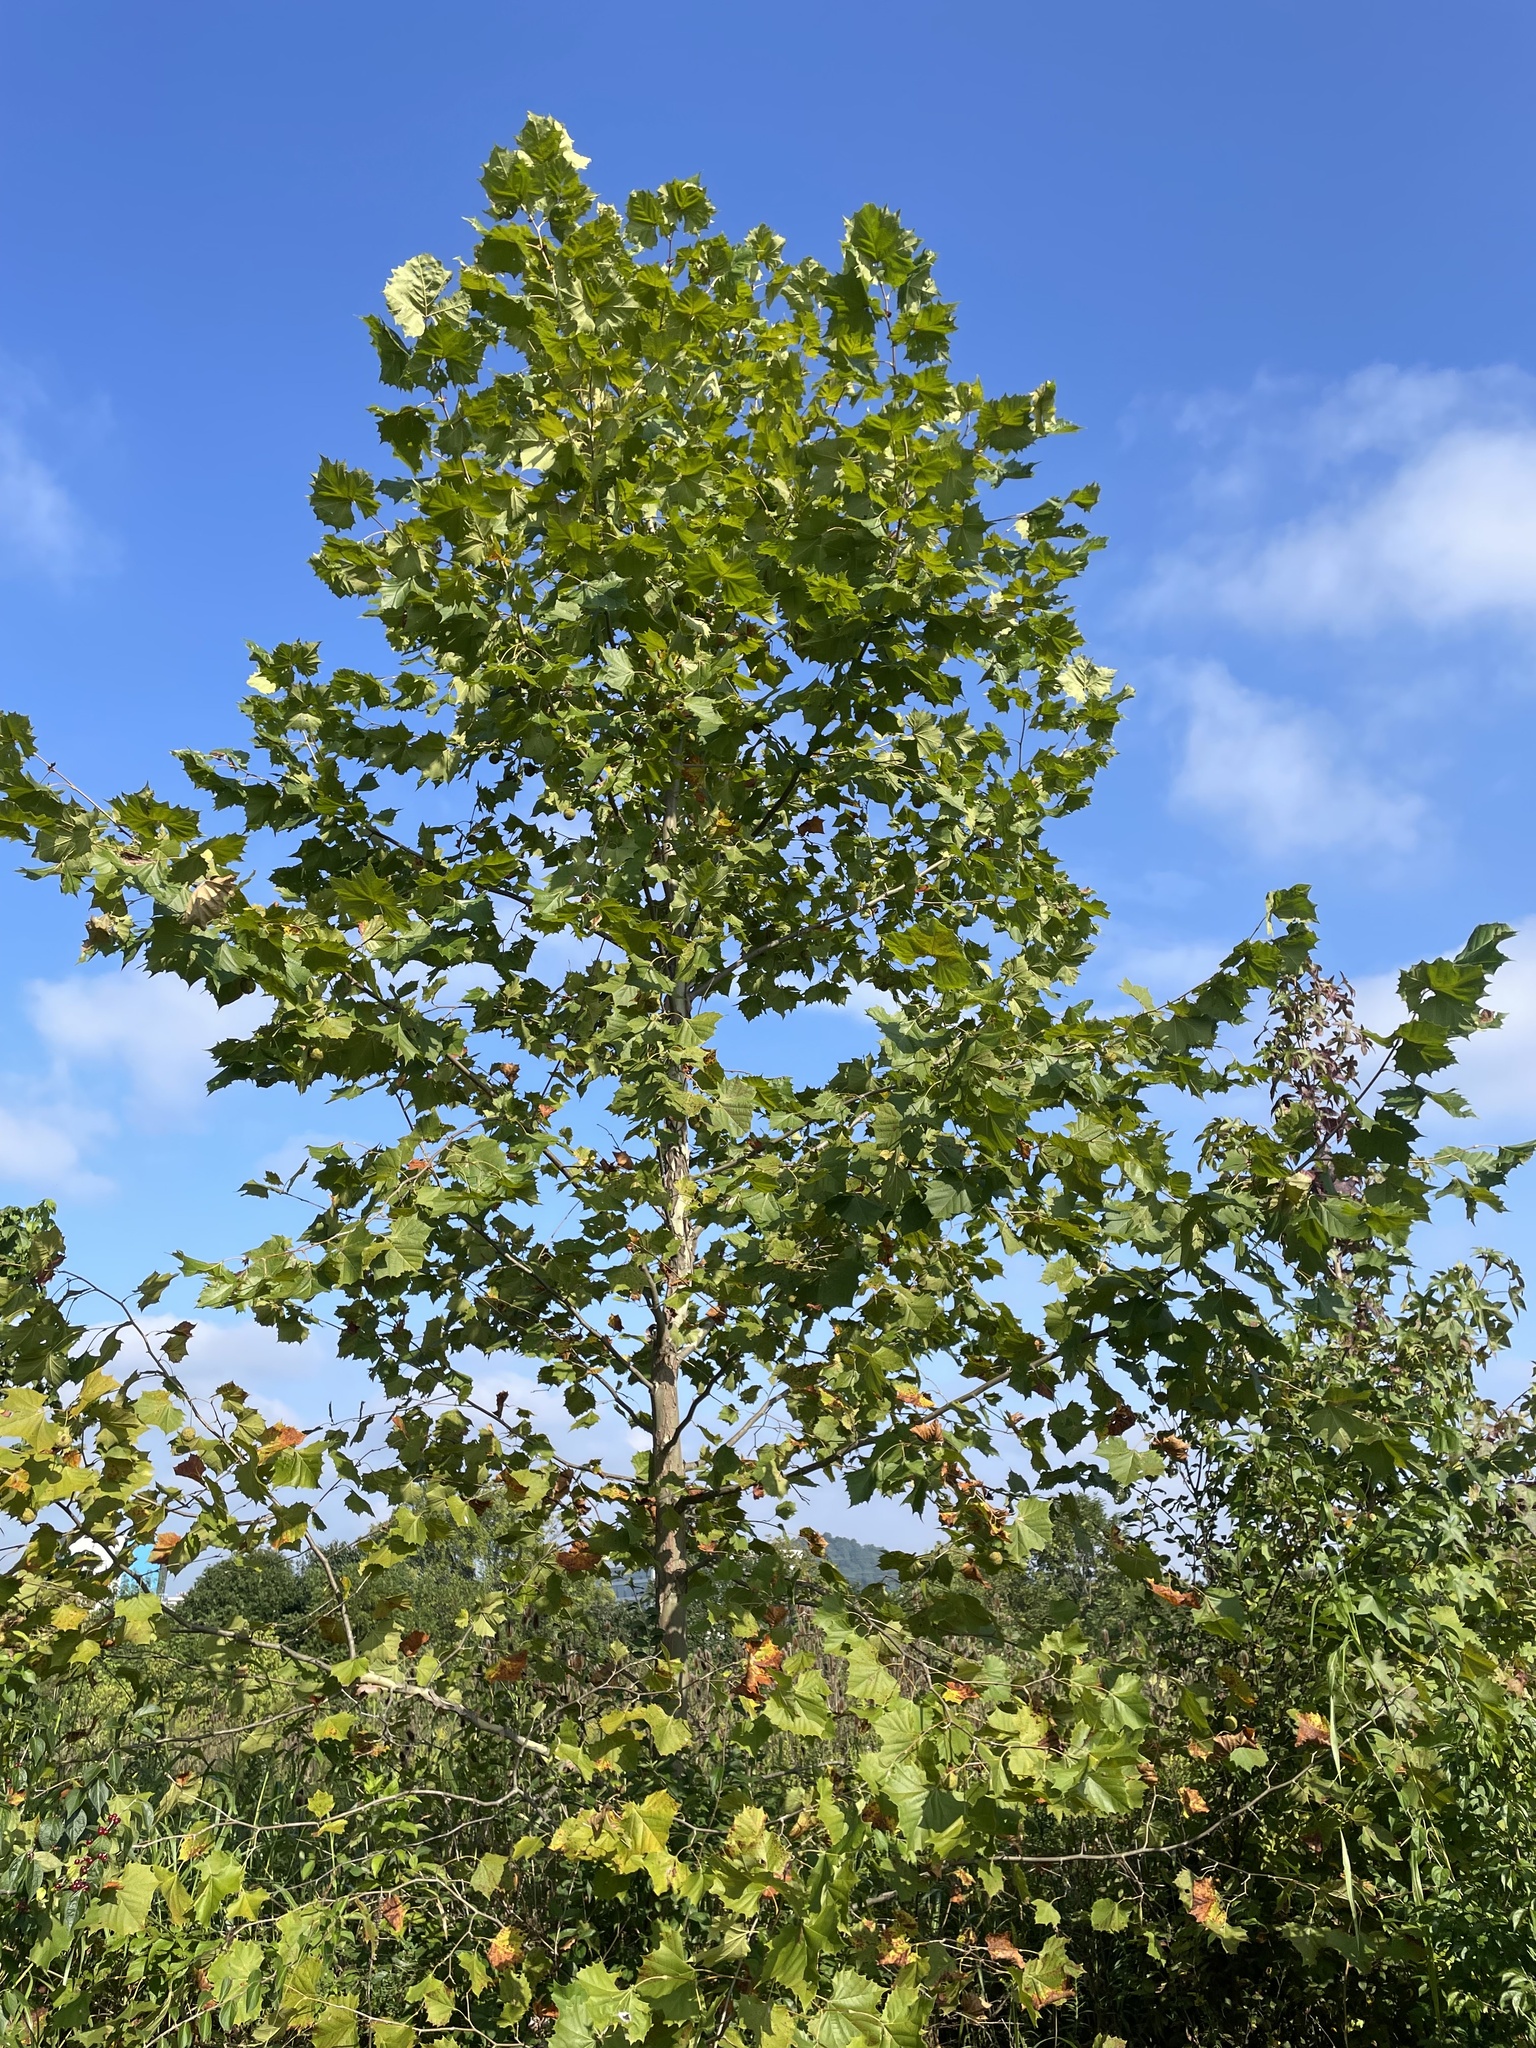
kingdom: Plantae
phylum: Tracheophyta
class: Magnoliopsida
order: Proteales
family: Platanaceae
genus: Platanus
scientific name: Platanus occidentalis
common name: American sycamore
